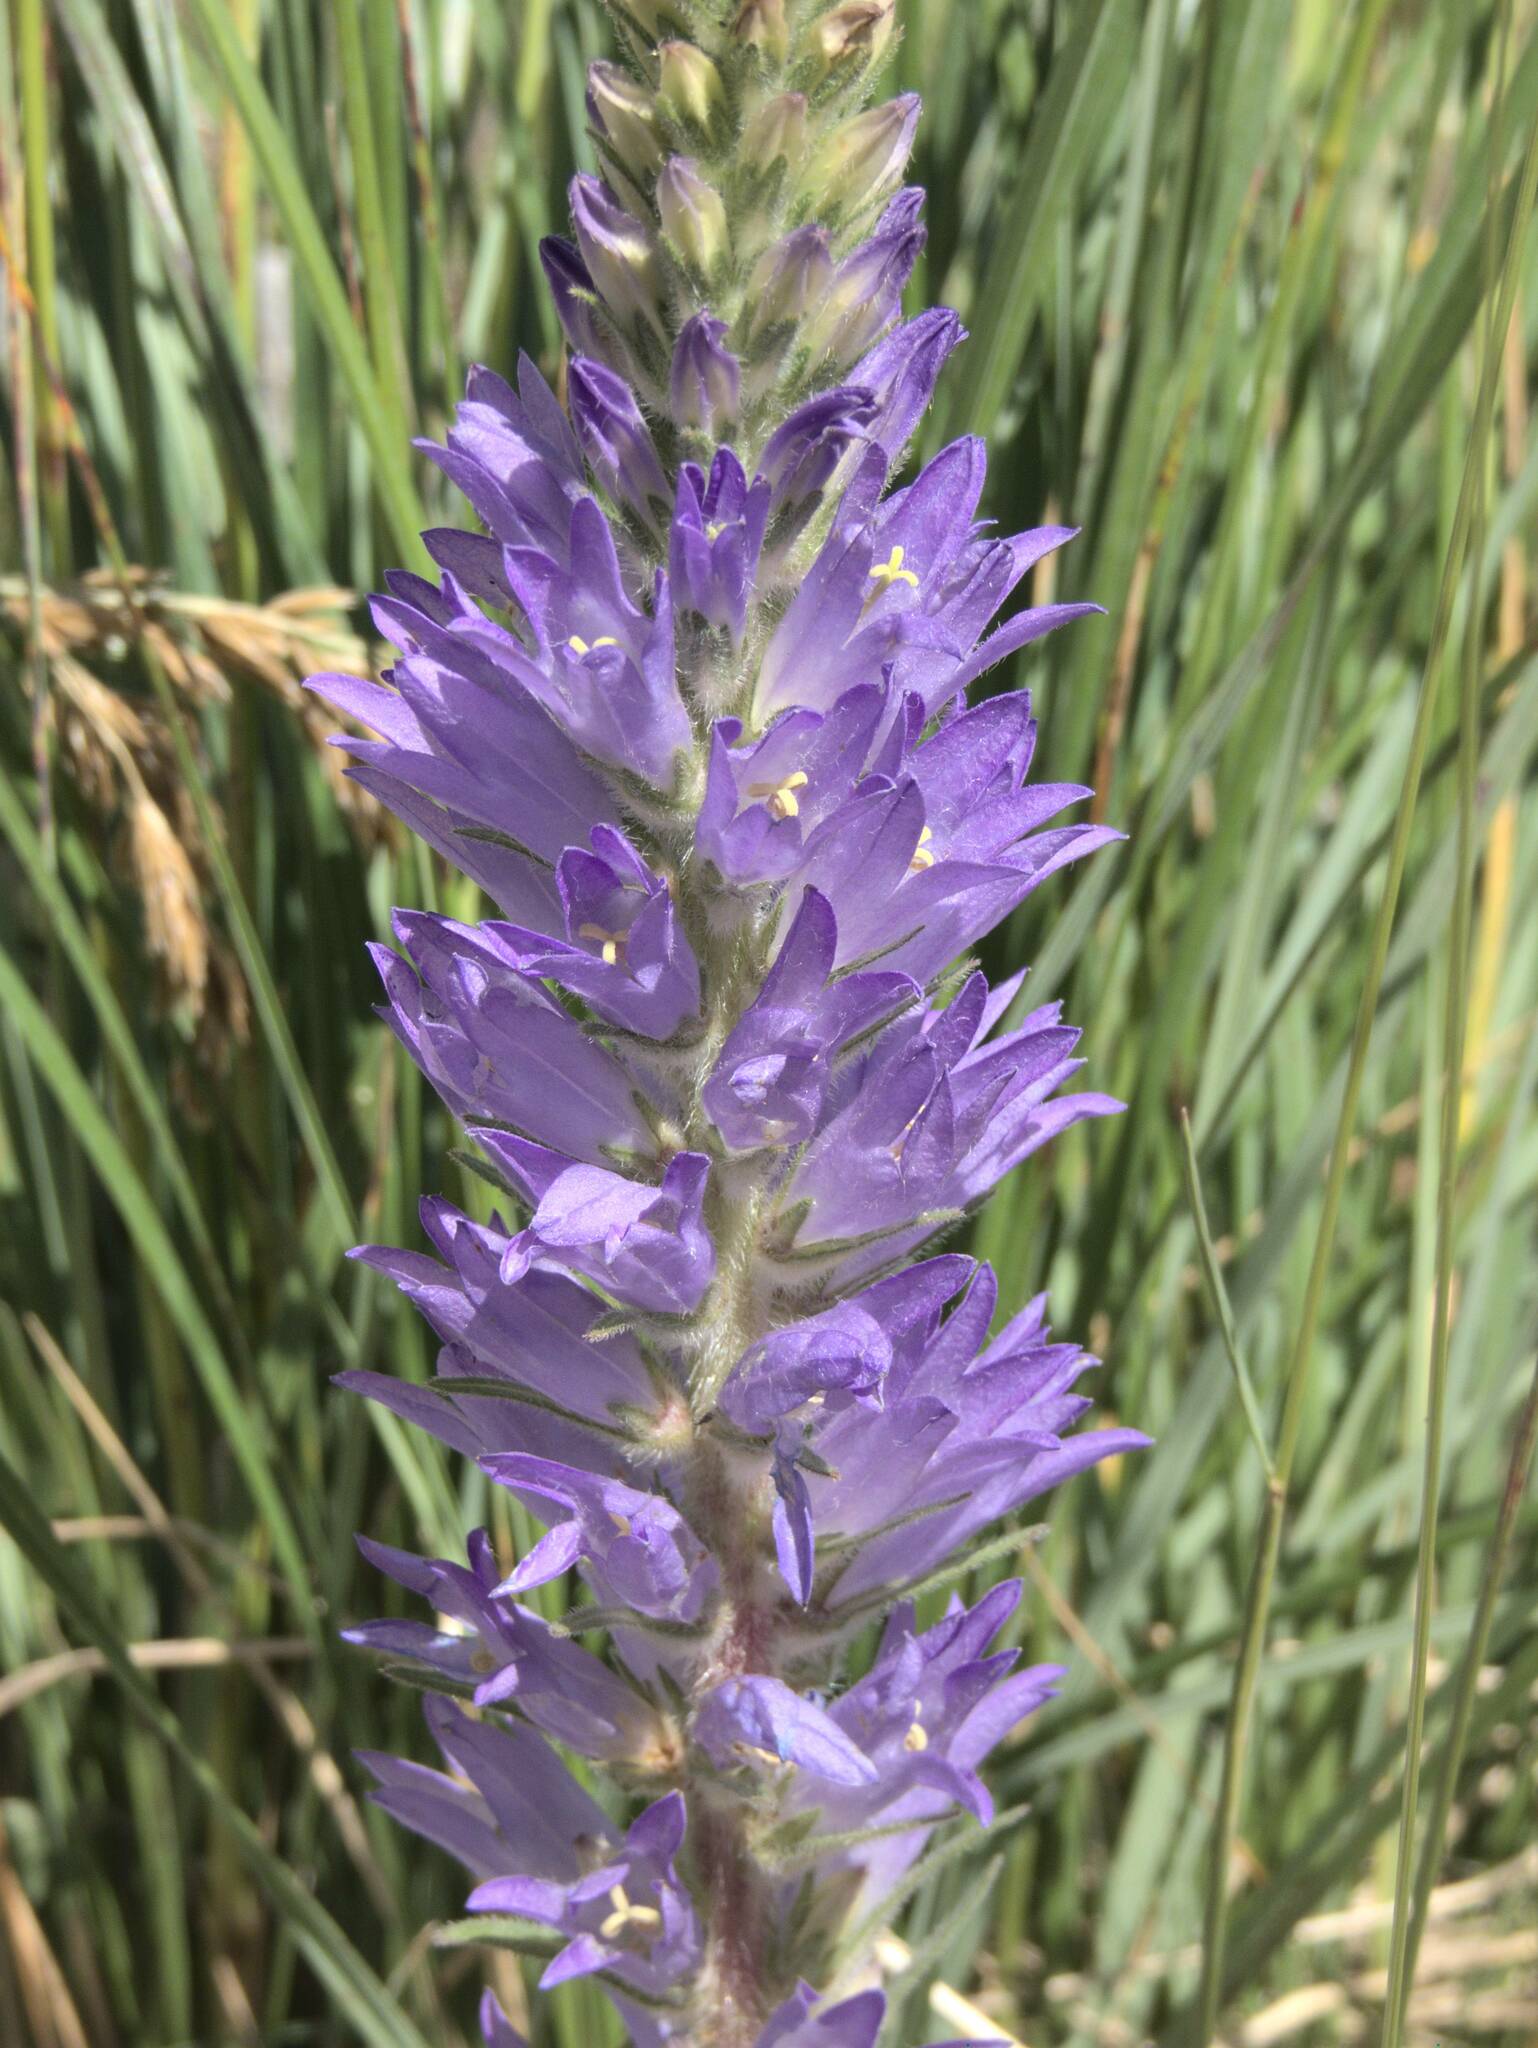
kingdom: Plantae
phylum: Tracheophyta
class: Magnoliopsida
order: Asterales
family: Campanulaceae
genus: Campanula
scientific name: Campanula spicata
